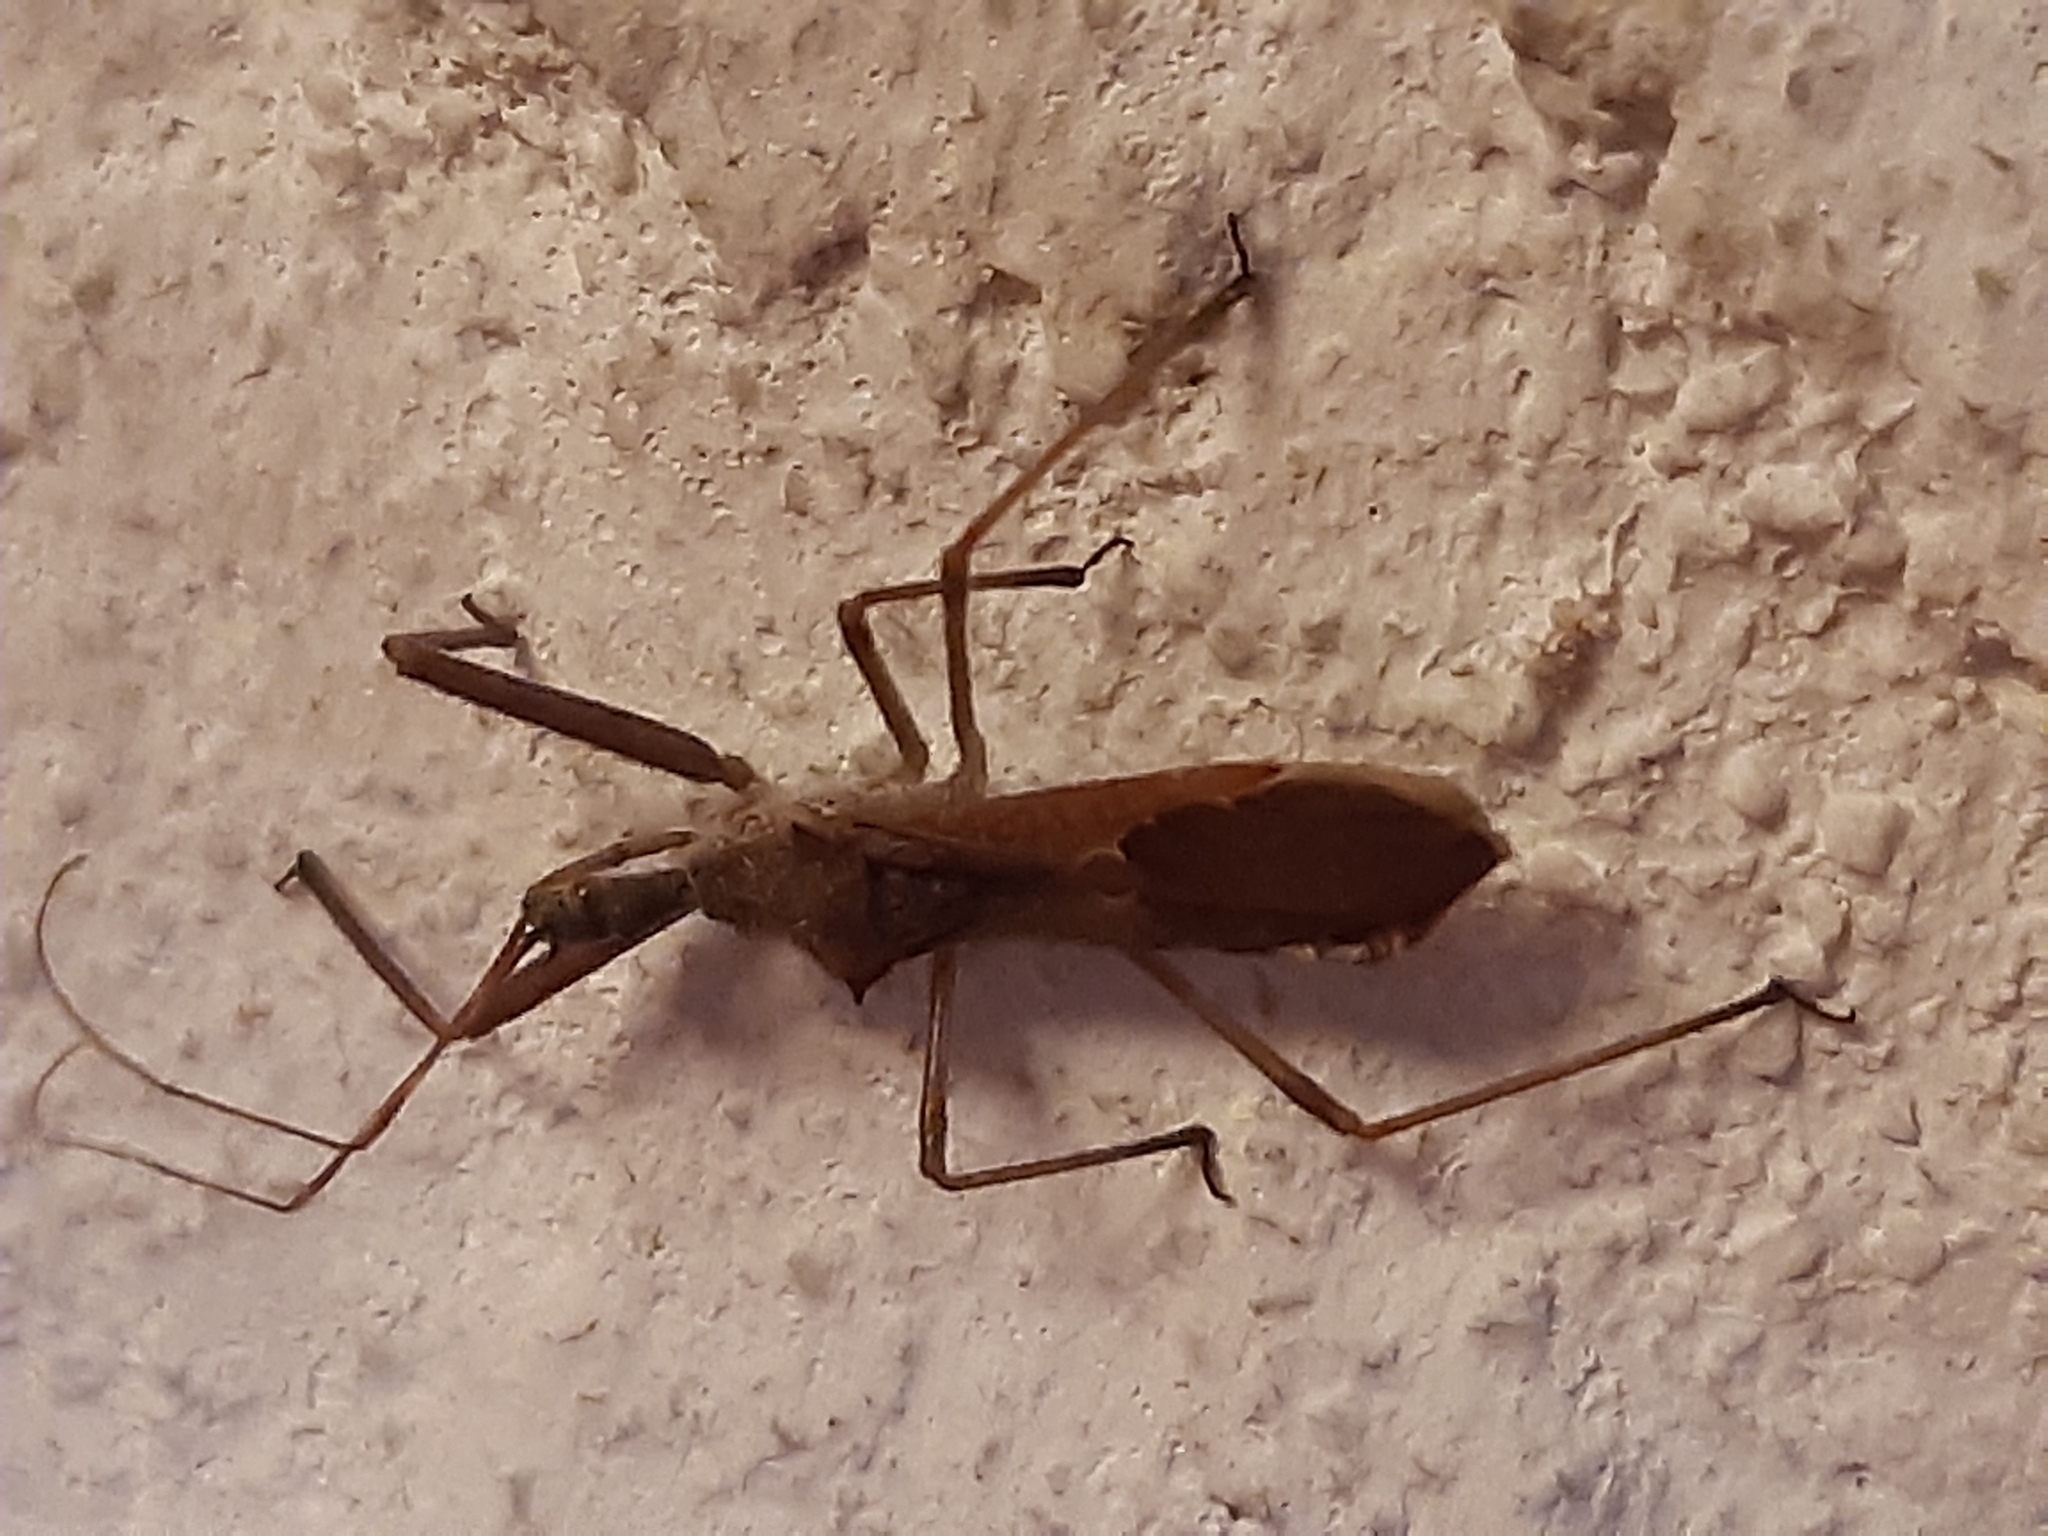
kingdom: Animalia
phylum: Arthropoda
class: Insecta
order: Hemiptera
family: Reduviidae
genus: Nagusta
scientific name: Nagusta goedelii
